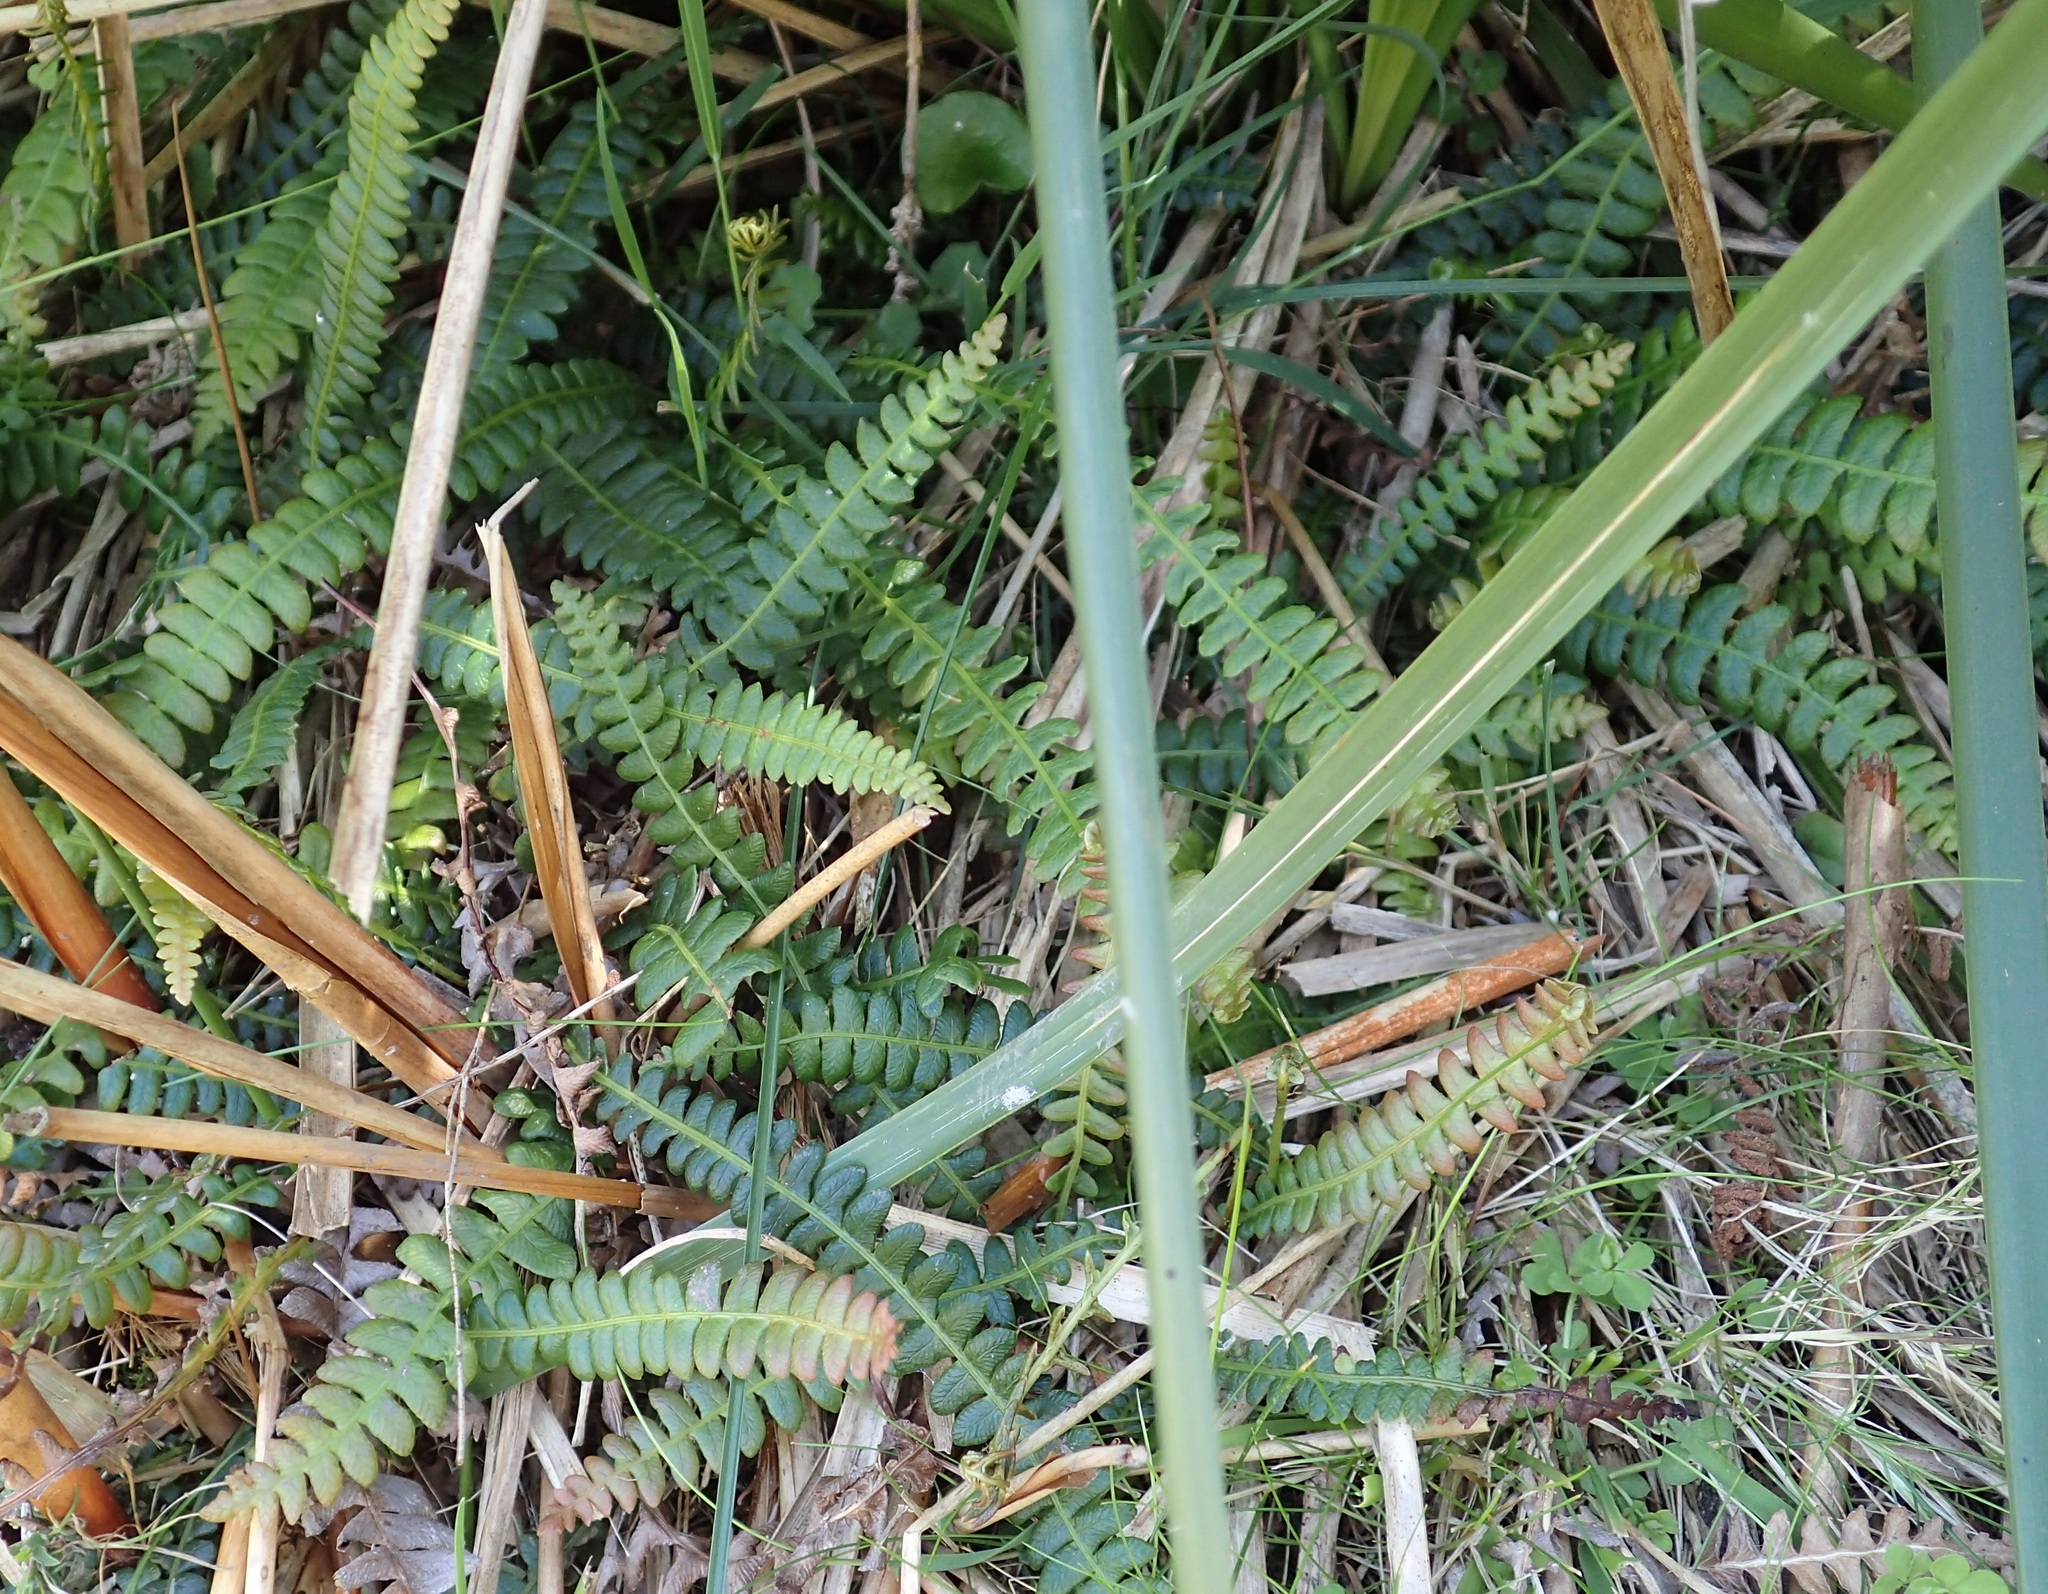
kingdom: Plantae
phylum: Tracheophyta
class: Polypodiopsida
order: Polypodiales
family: Blechnaceae
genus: Austroblechnum
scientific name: Austroblechnum penna-marina
